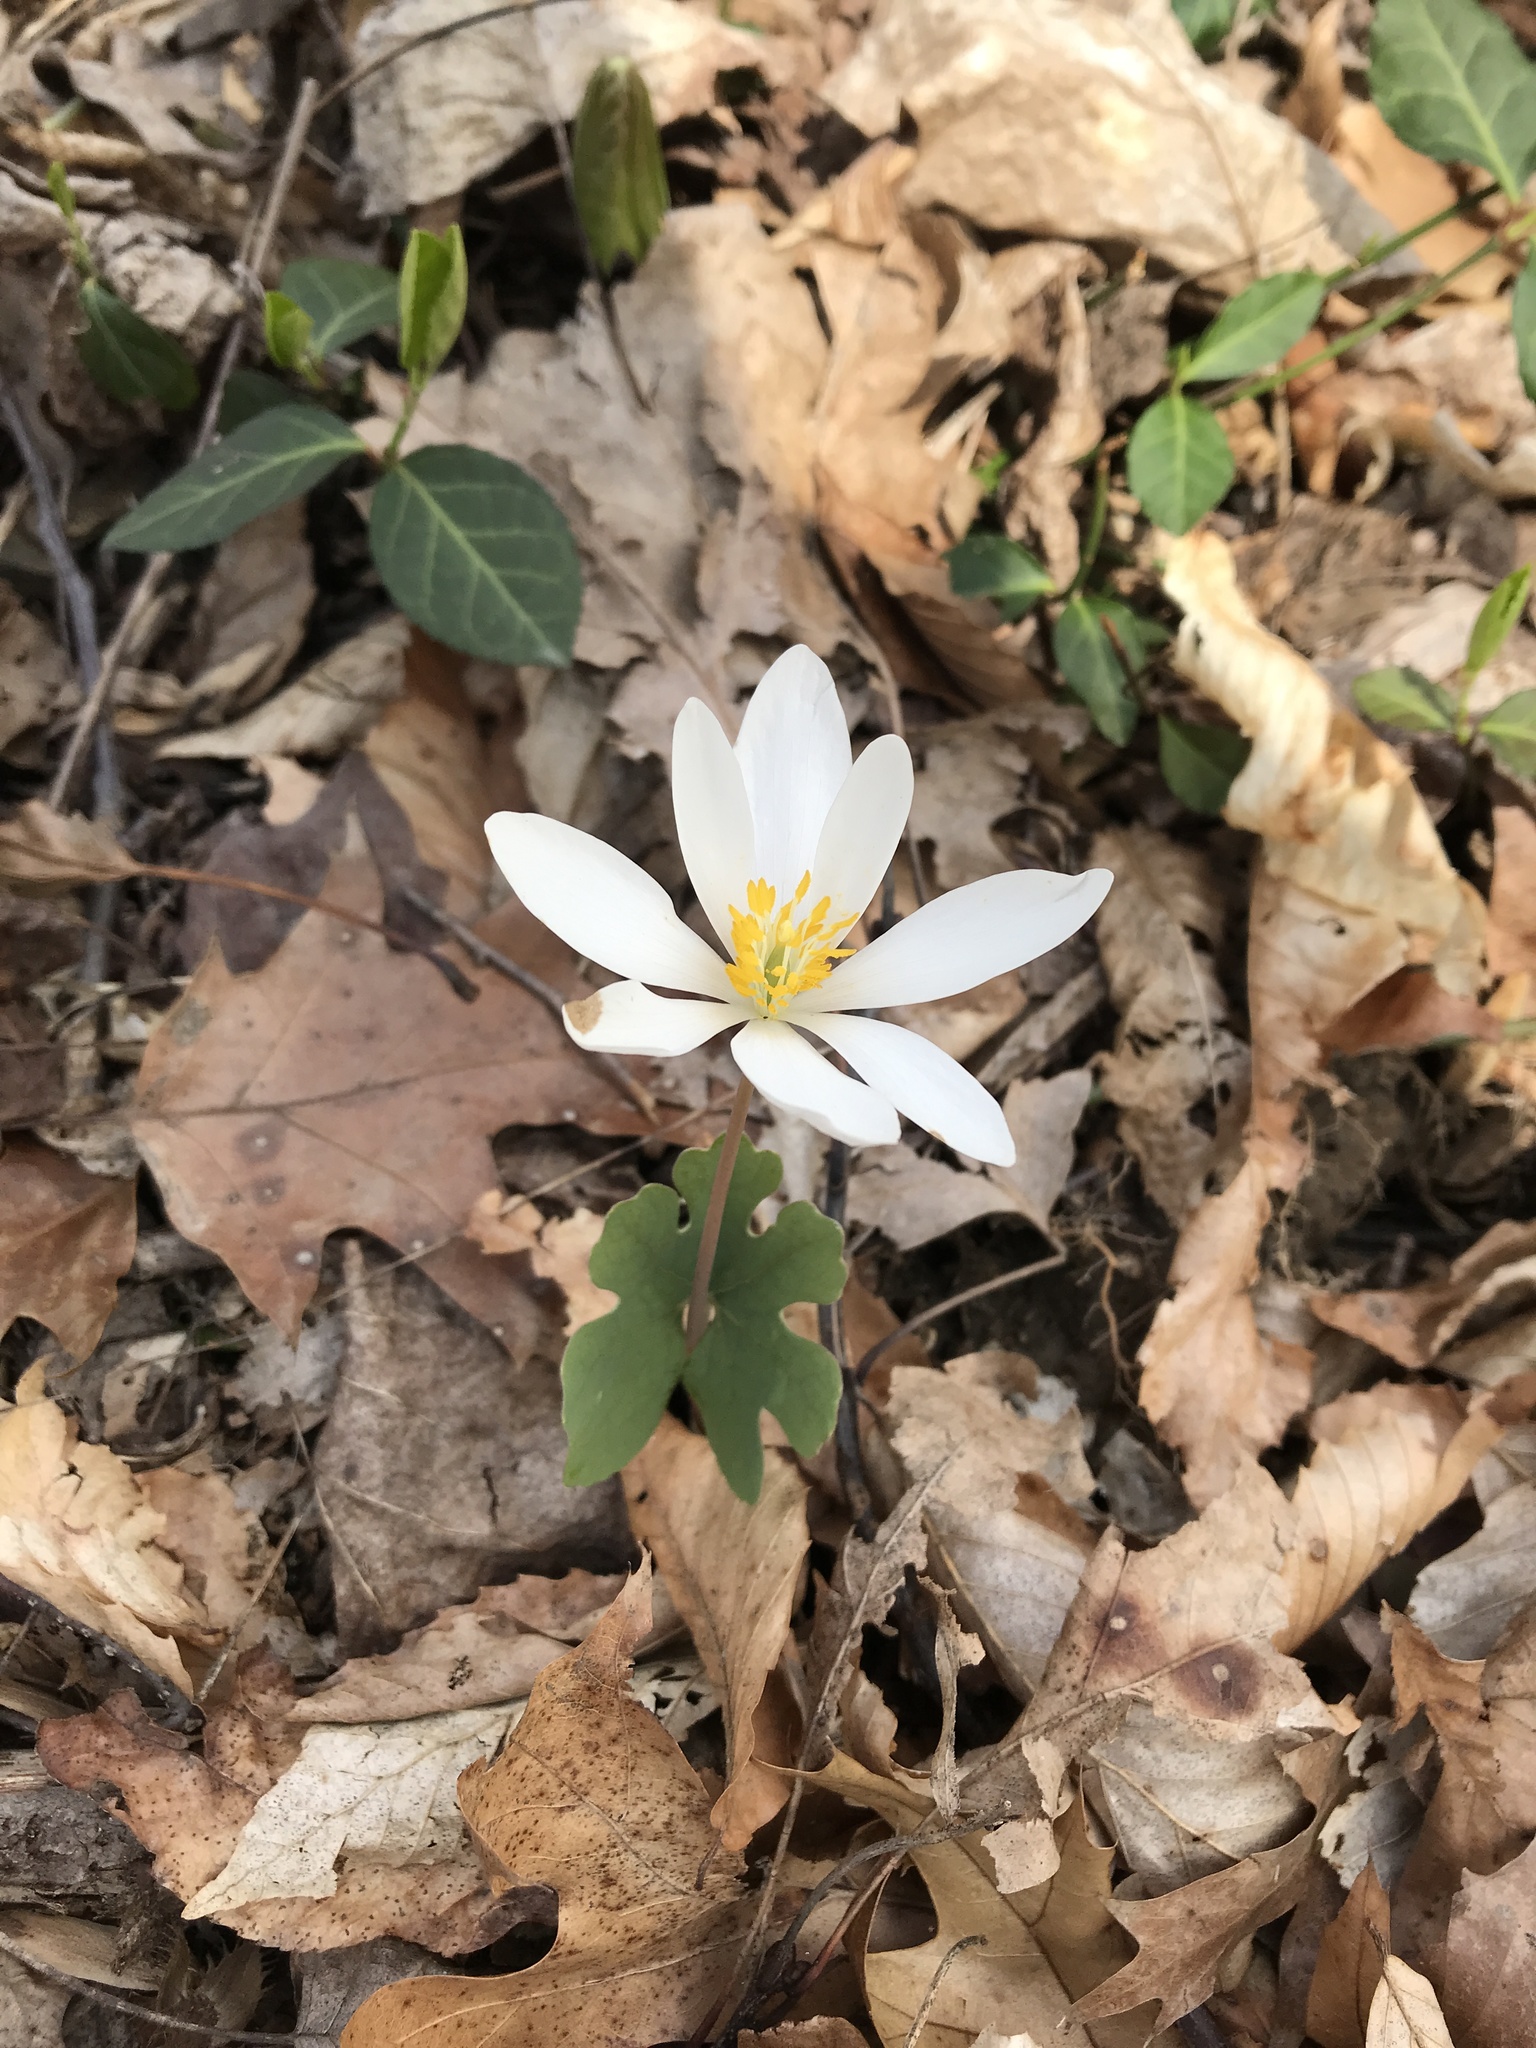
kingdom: Plantae
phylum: Tracheophyta
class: Magnoliopsida
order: Ranunculales
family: Papaveraceae
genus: Sanguinaria
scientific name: Sanguinaria canadensis
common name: Bloodroot
